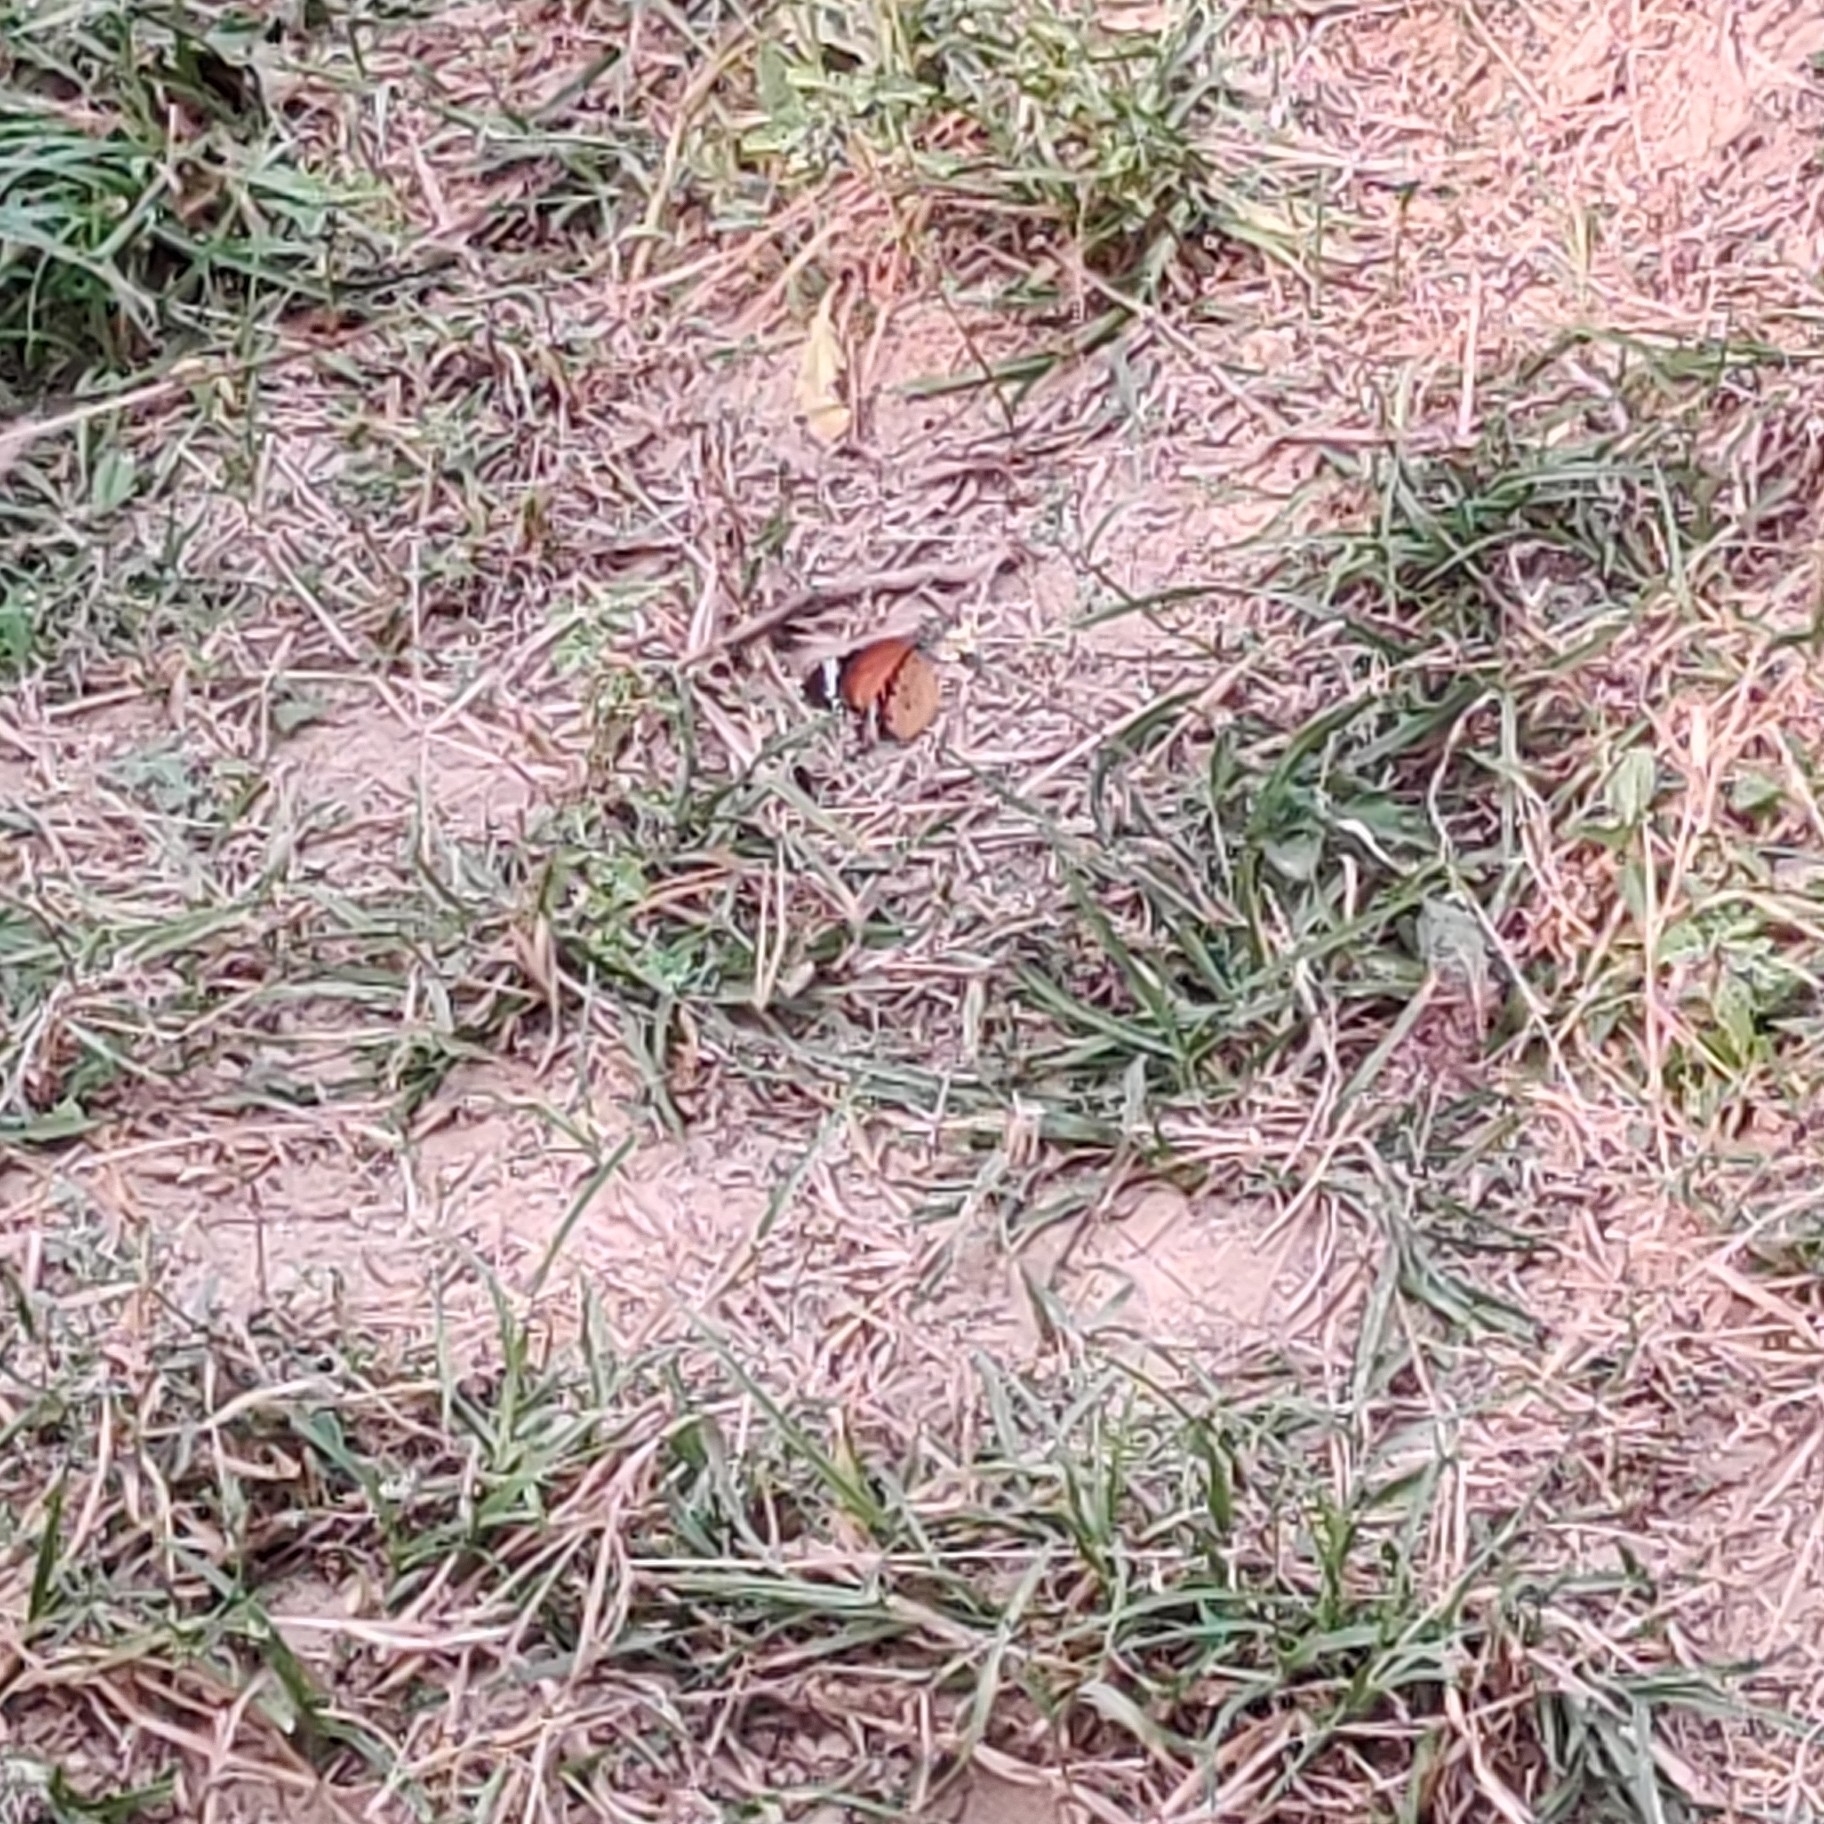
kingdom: Animalia
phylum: Arthropoda
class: Insecta
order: Lepidoptera
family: Nymphalidae
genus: Danaus
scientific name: Danaus chrysippus
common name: Plain tiger
